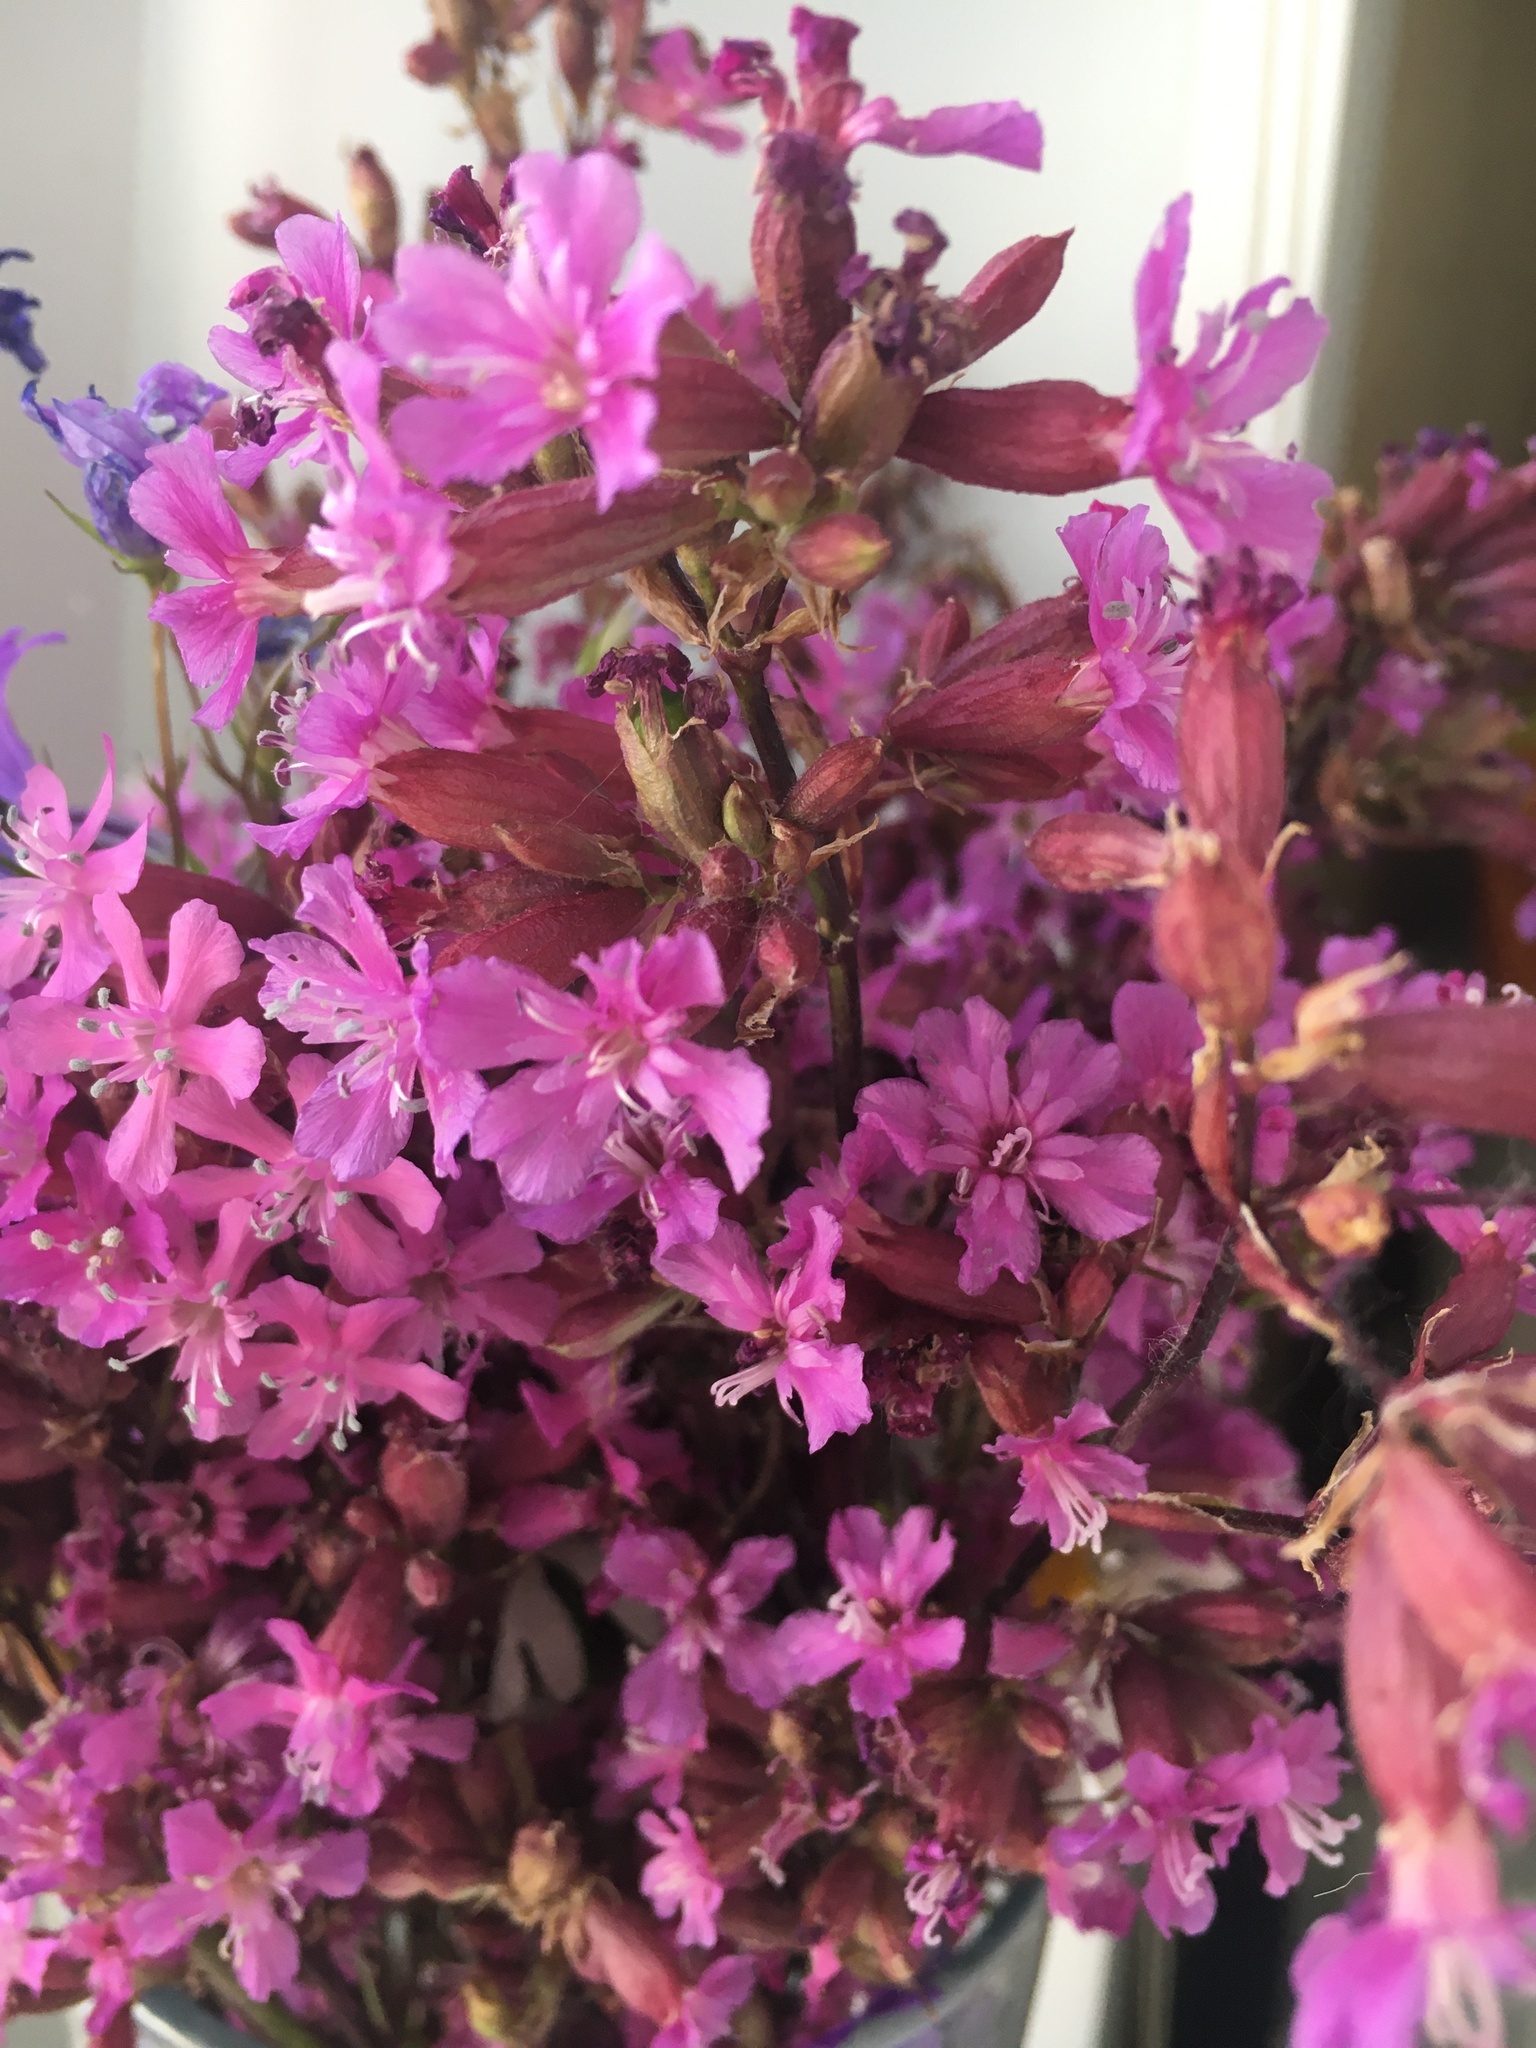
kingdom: Plantae
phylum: Tracheophyta
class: Magnoliopsida
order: Caryophyllales
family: Caryophyllaceae
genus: Viscaria
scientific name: Viscaria vulgaris
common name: Clammy campion
